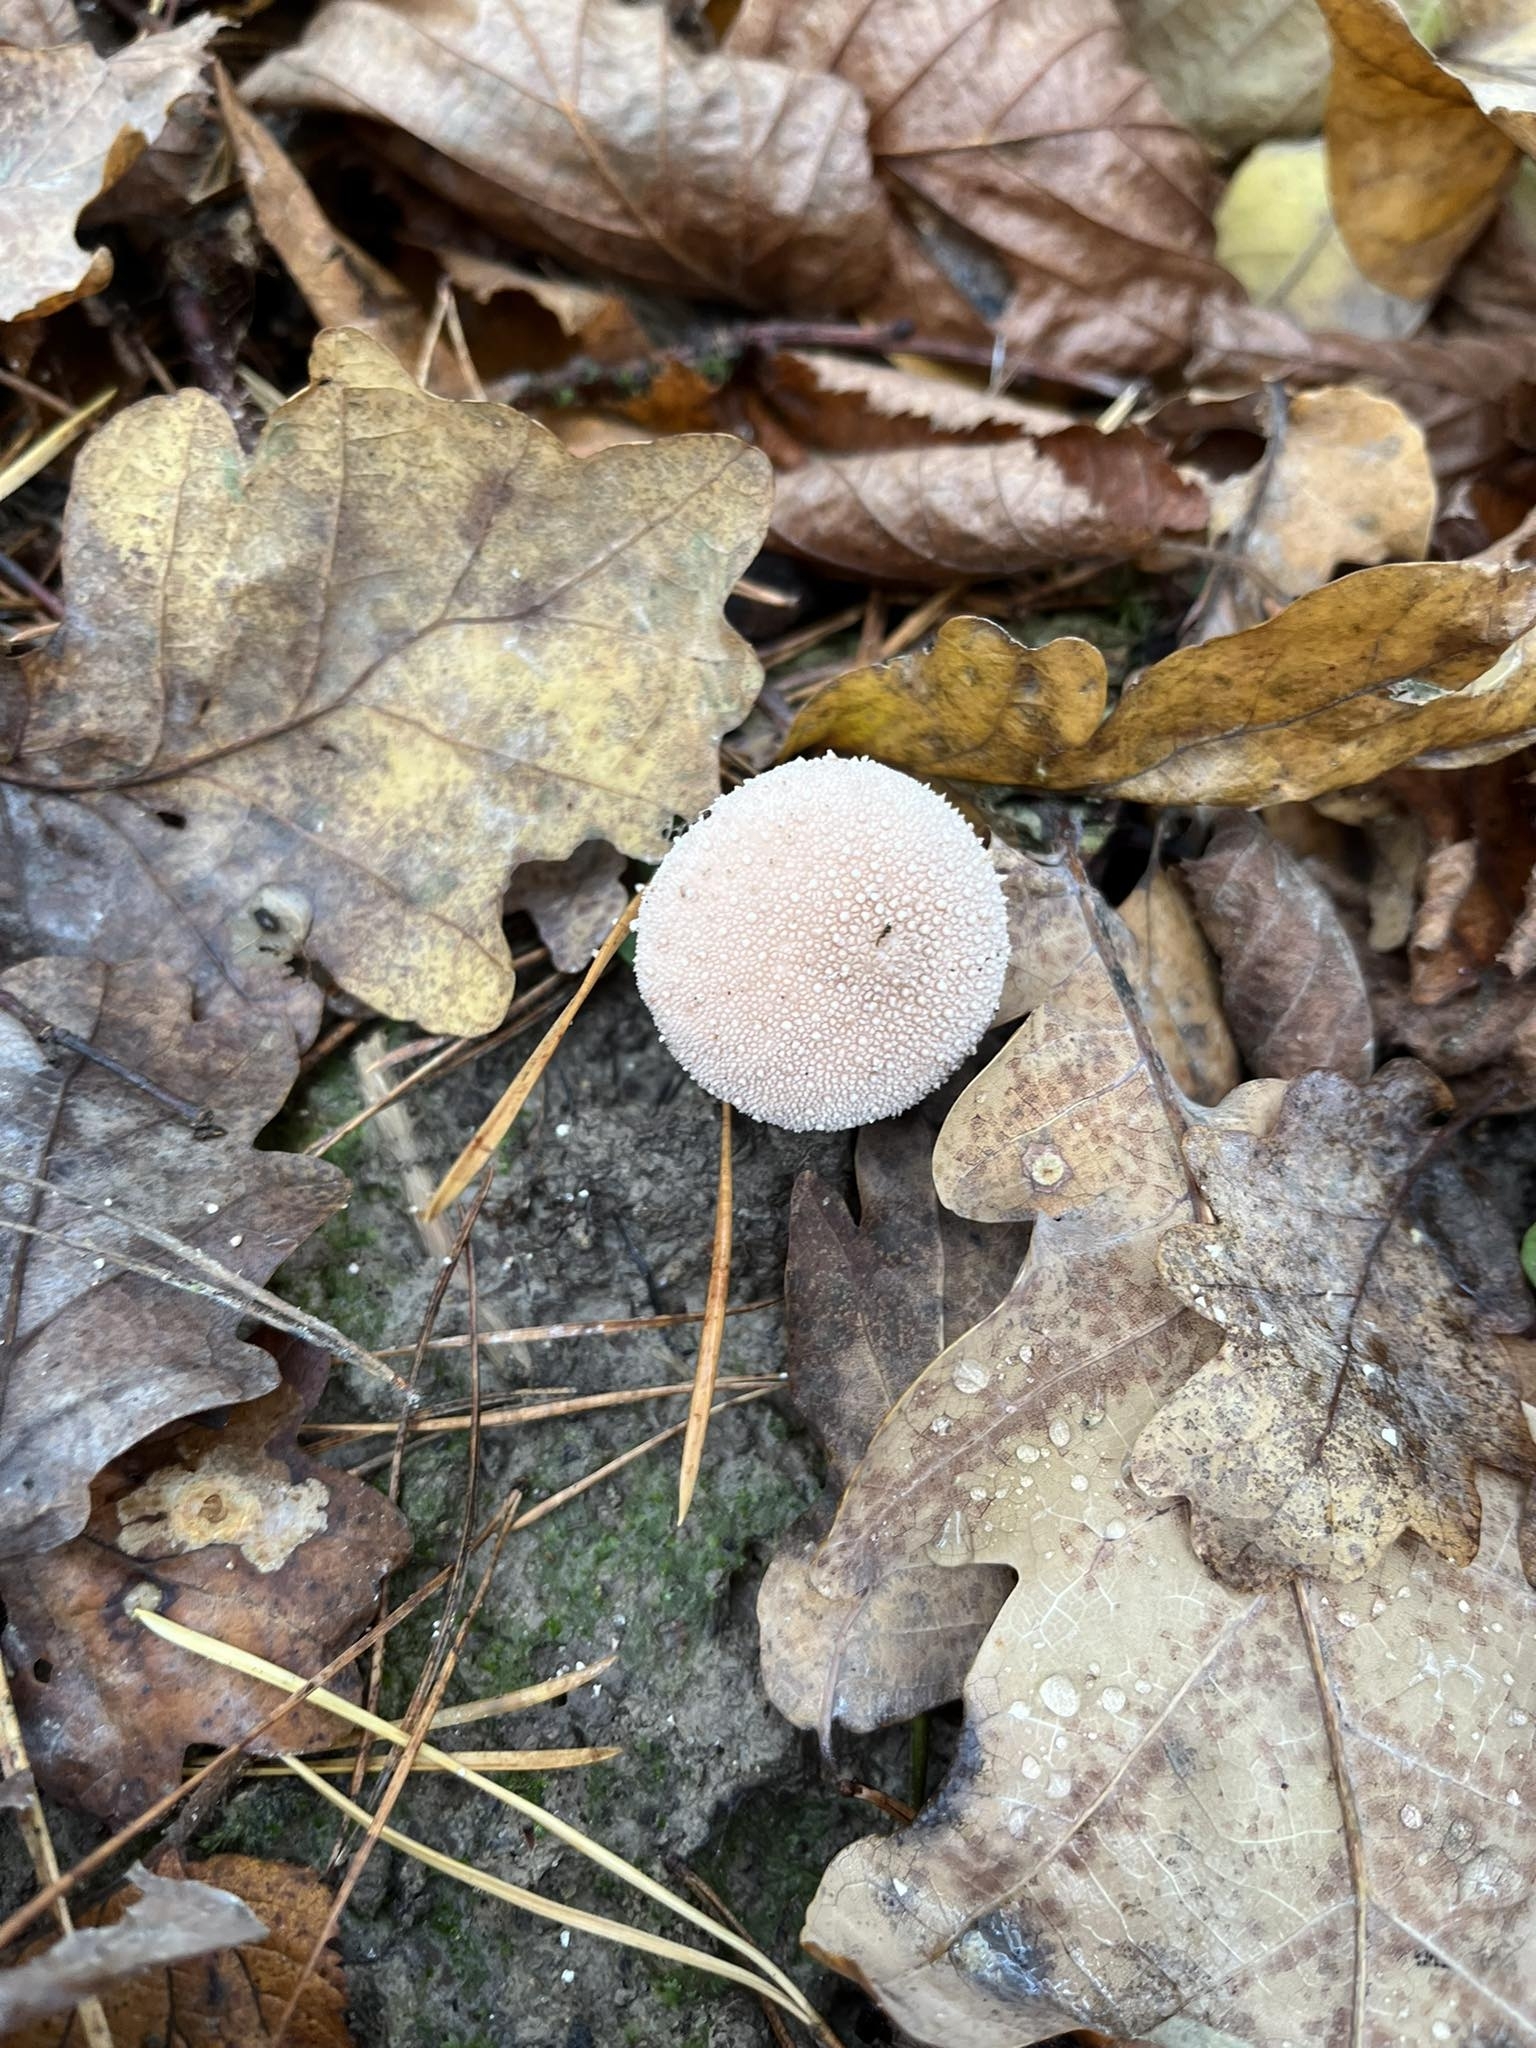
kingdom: Fungi
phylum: Basidiomycota
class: Agaricomycetes
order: Agaricales
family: Lycoperdaceae
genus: Lycoperdon
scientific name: Lycoperdon perlatum
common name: Common puffball
